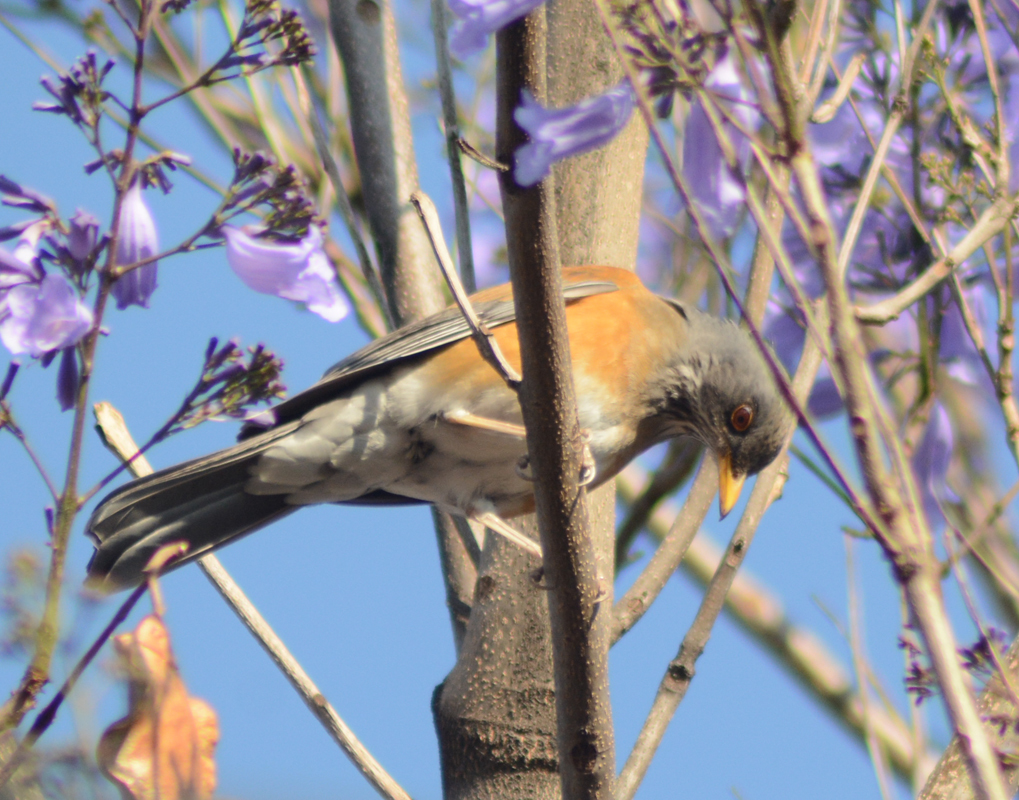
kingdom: Animalia
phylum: Chordata
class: Aves
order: Passeriformes
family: Turdidae
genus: Turdus
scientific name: Turdus rufopalliatus
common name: Rufous-backed robin
